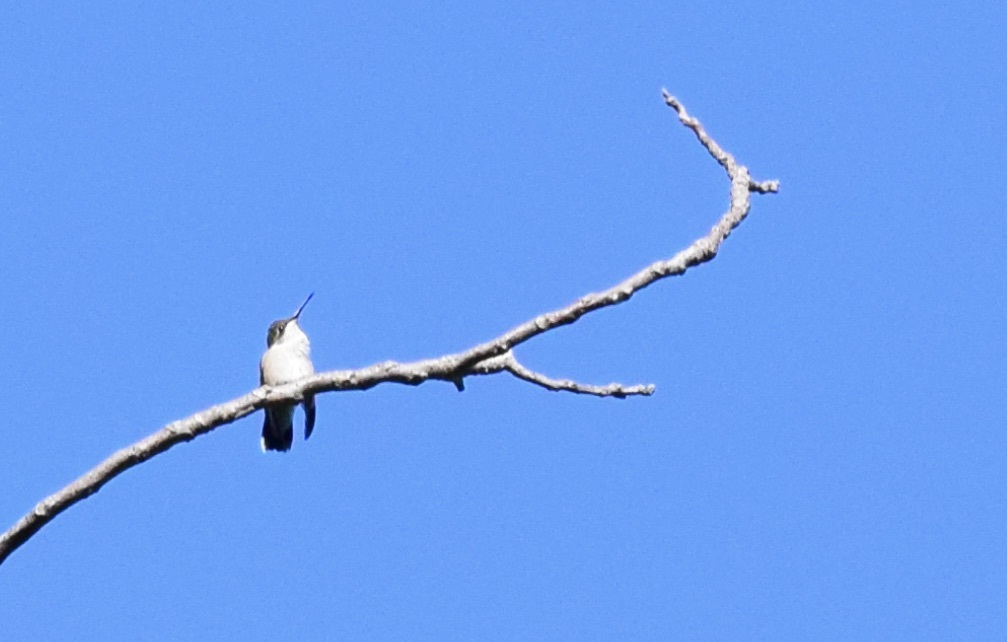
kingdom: Animalia
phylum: Chordata
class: Aves
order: Apodiformes
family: Trochilidae
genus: Archilochus
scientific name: Archilochus colubris
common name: Ruby-throated hummingbird
